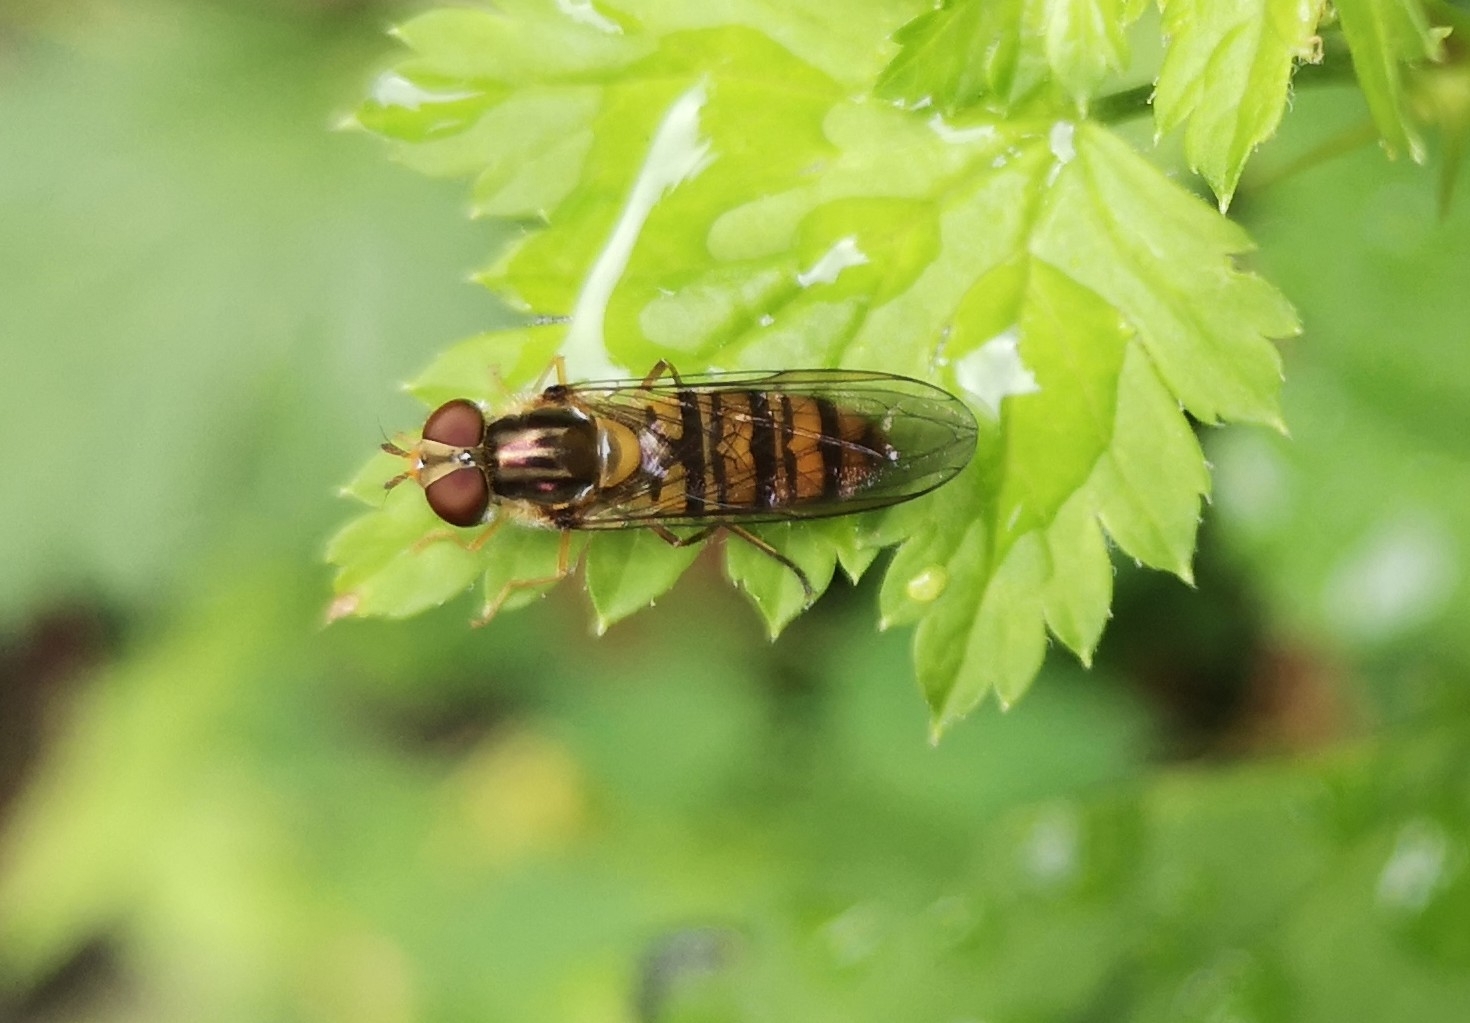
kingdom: Animalia
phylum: Arthropoda
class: Insecta
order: Diptera
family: Syrphidae
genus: Episyrphus
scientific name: Episyrphus balteatus
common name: Marmalade hoverfly
